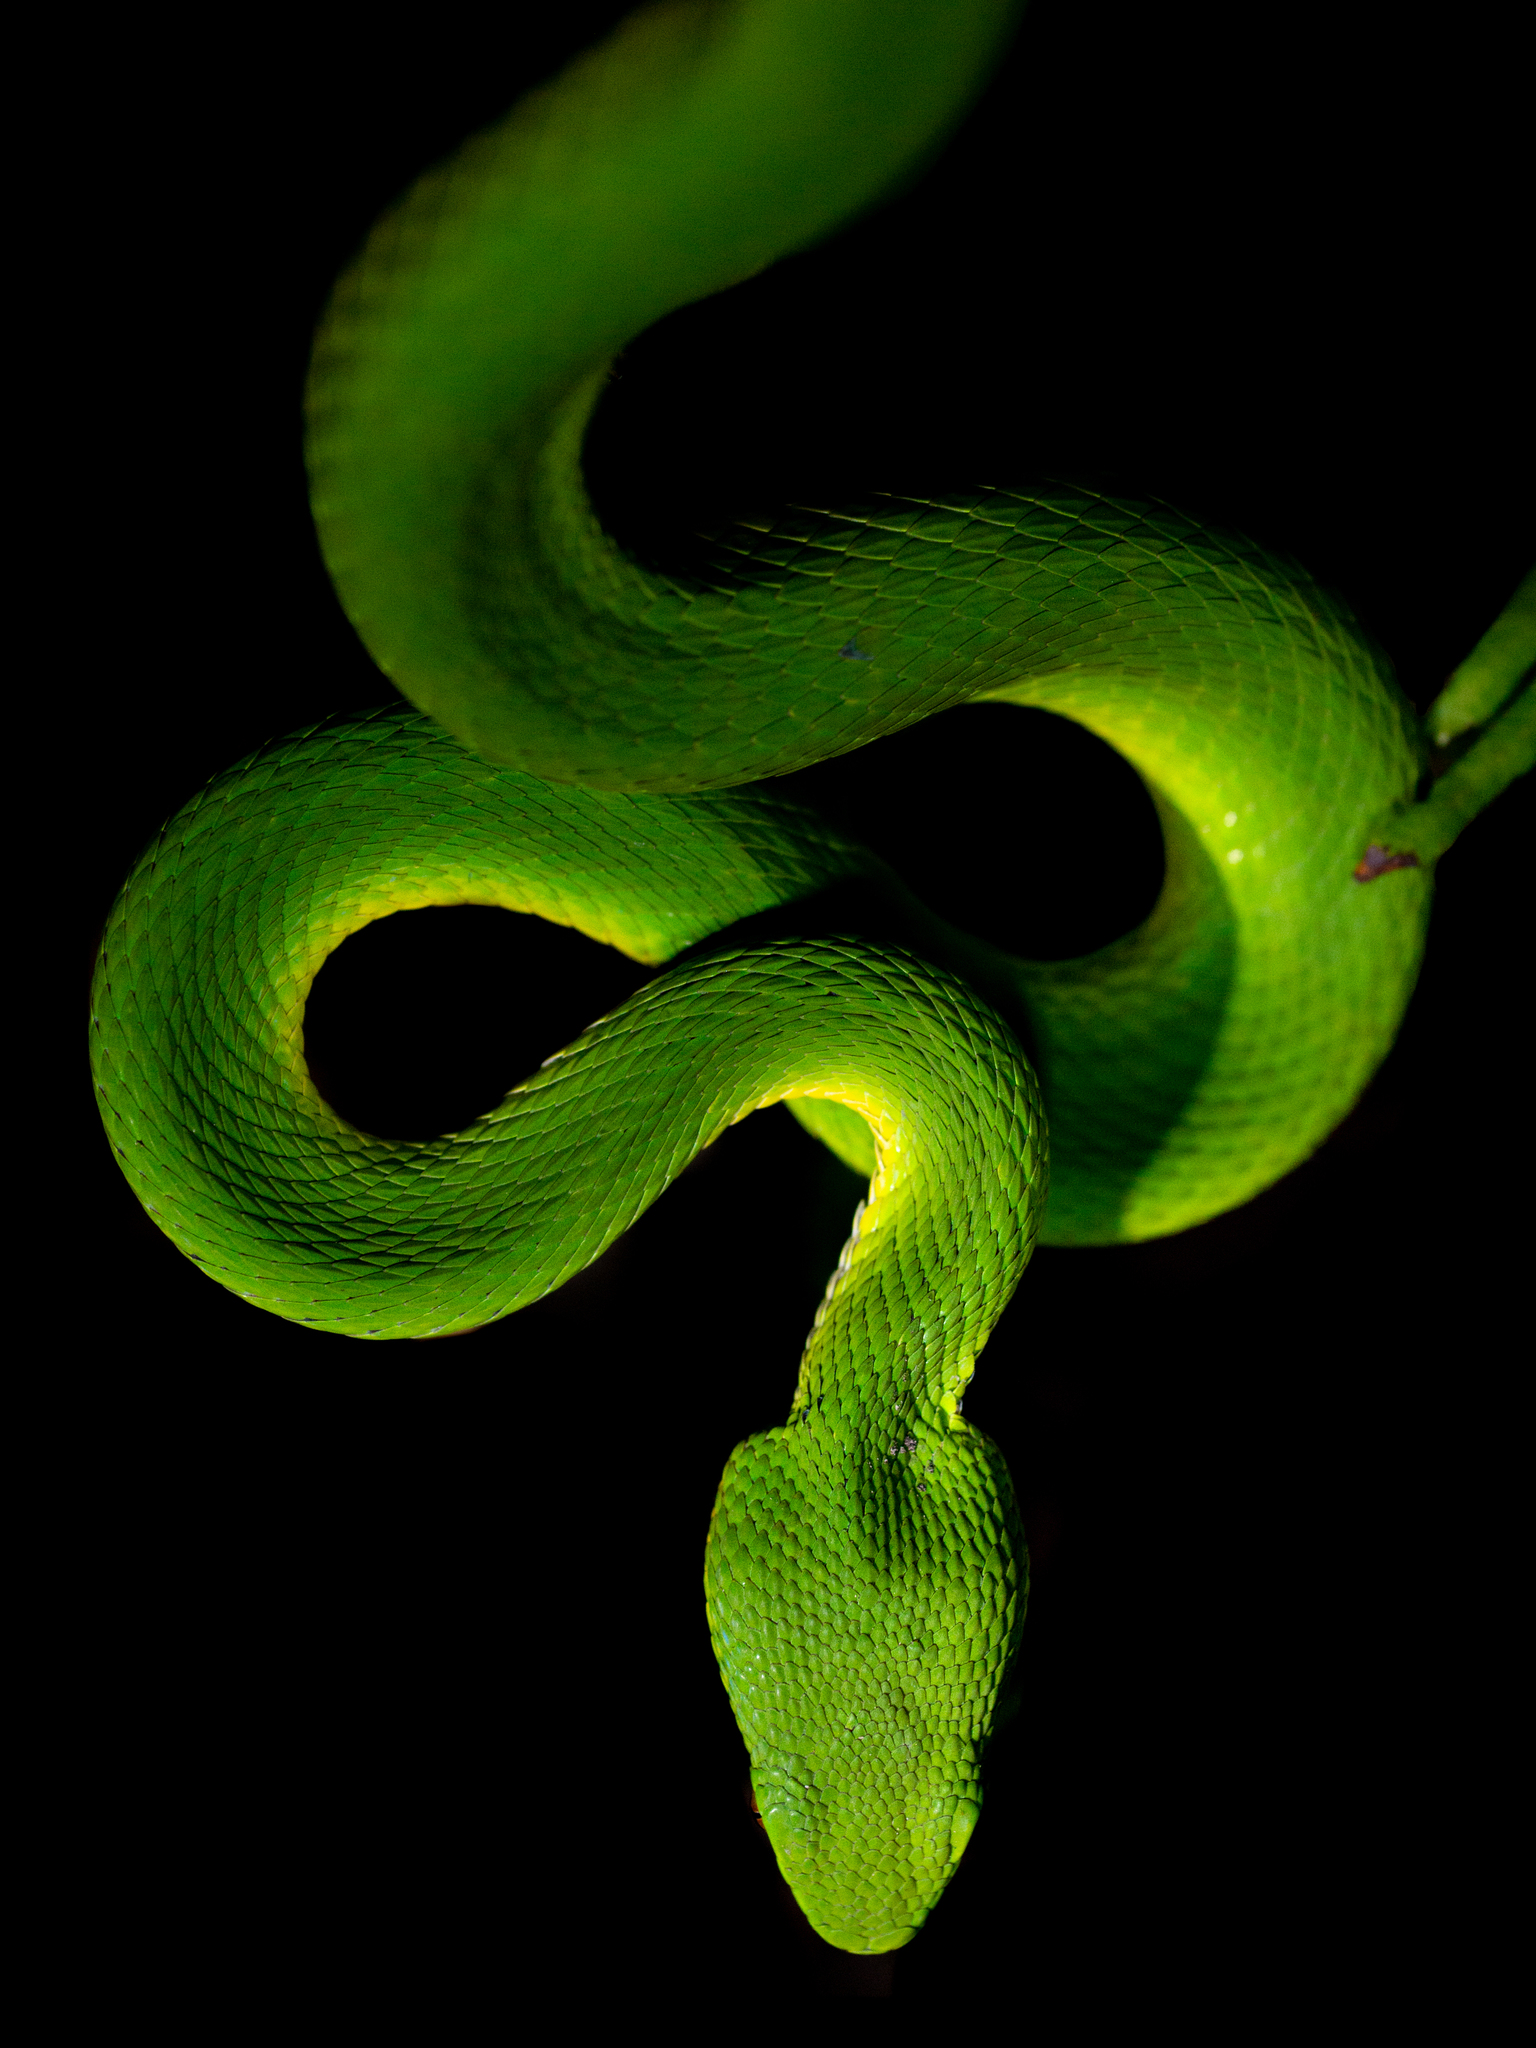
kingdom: Animalia
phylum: Chordata
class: Squamata
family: Viperidae
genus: Trimeresurus
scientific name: Trimeresurus albolabris
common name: White-lipped pitviper
